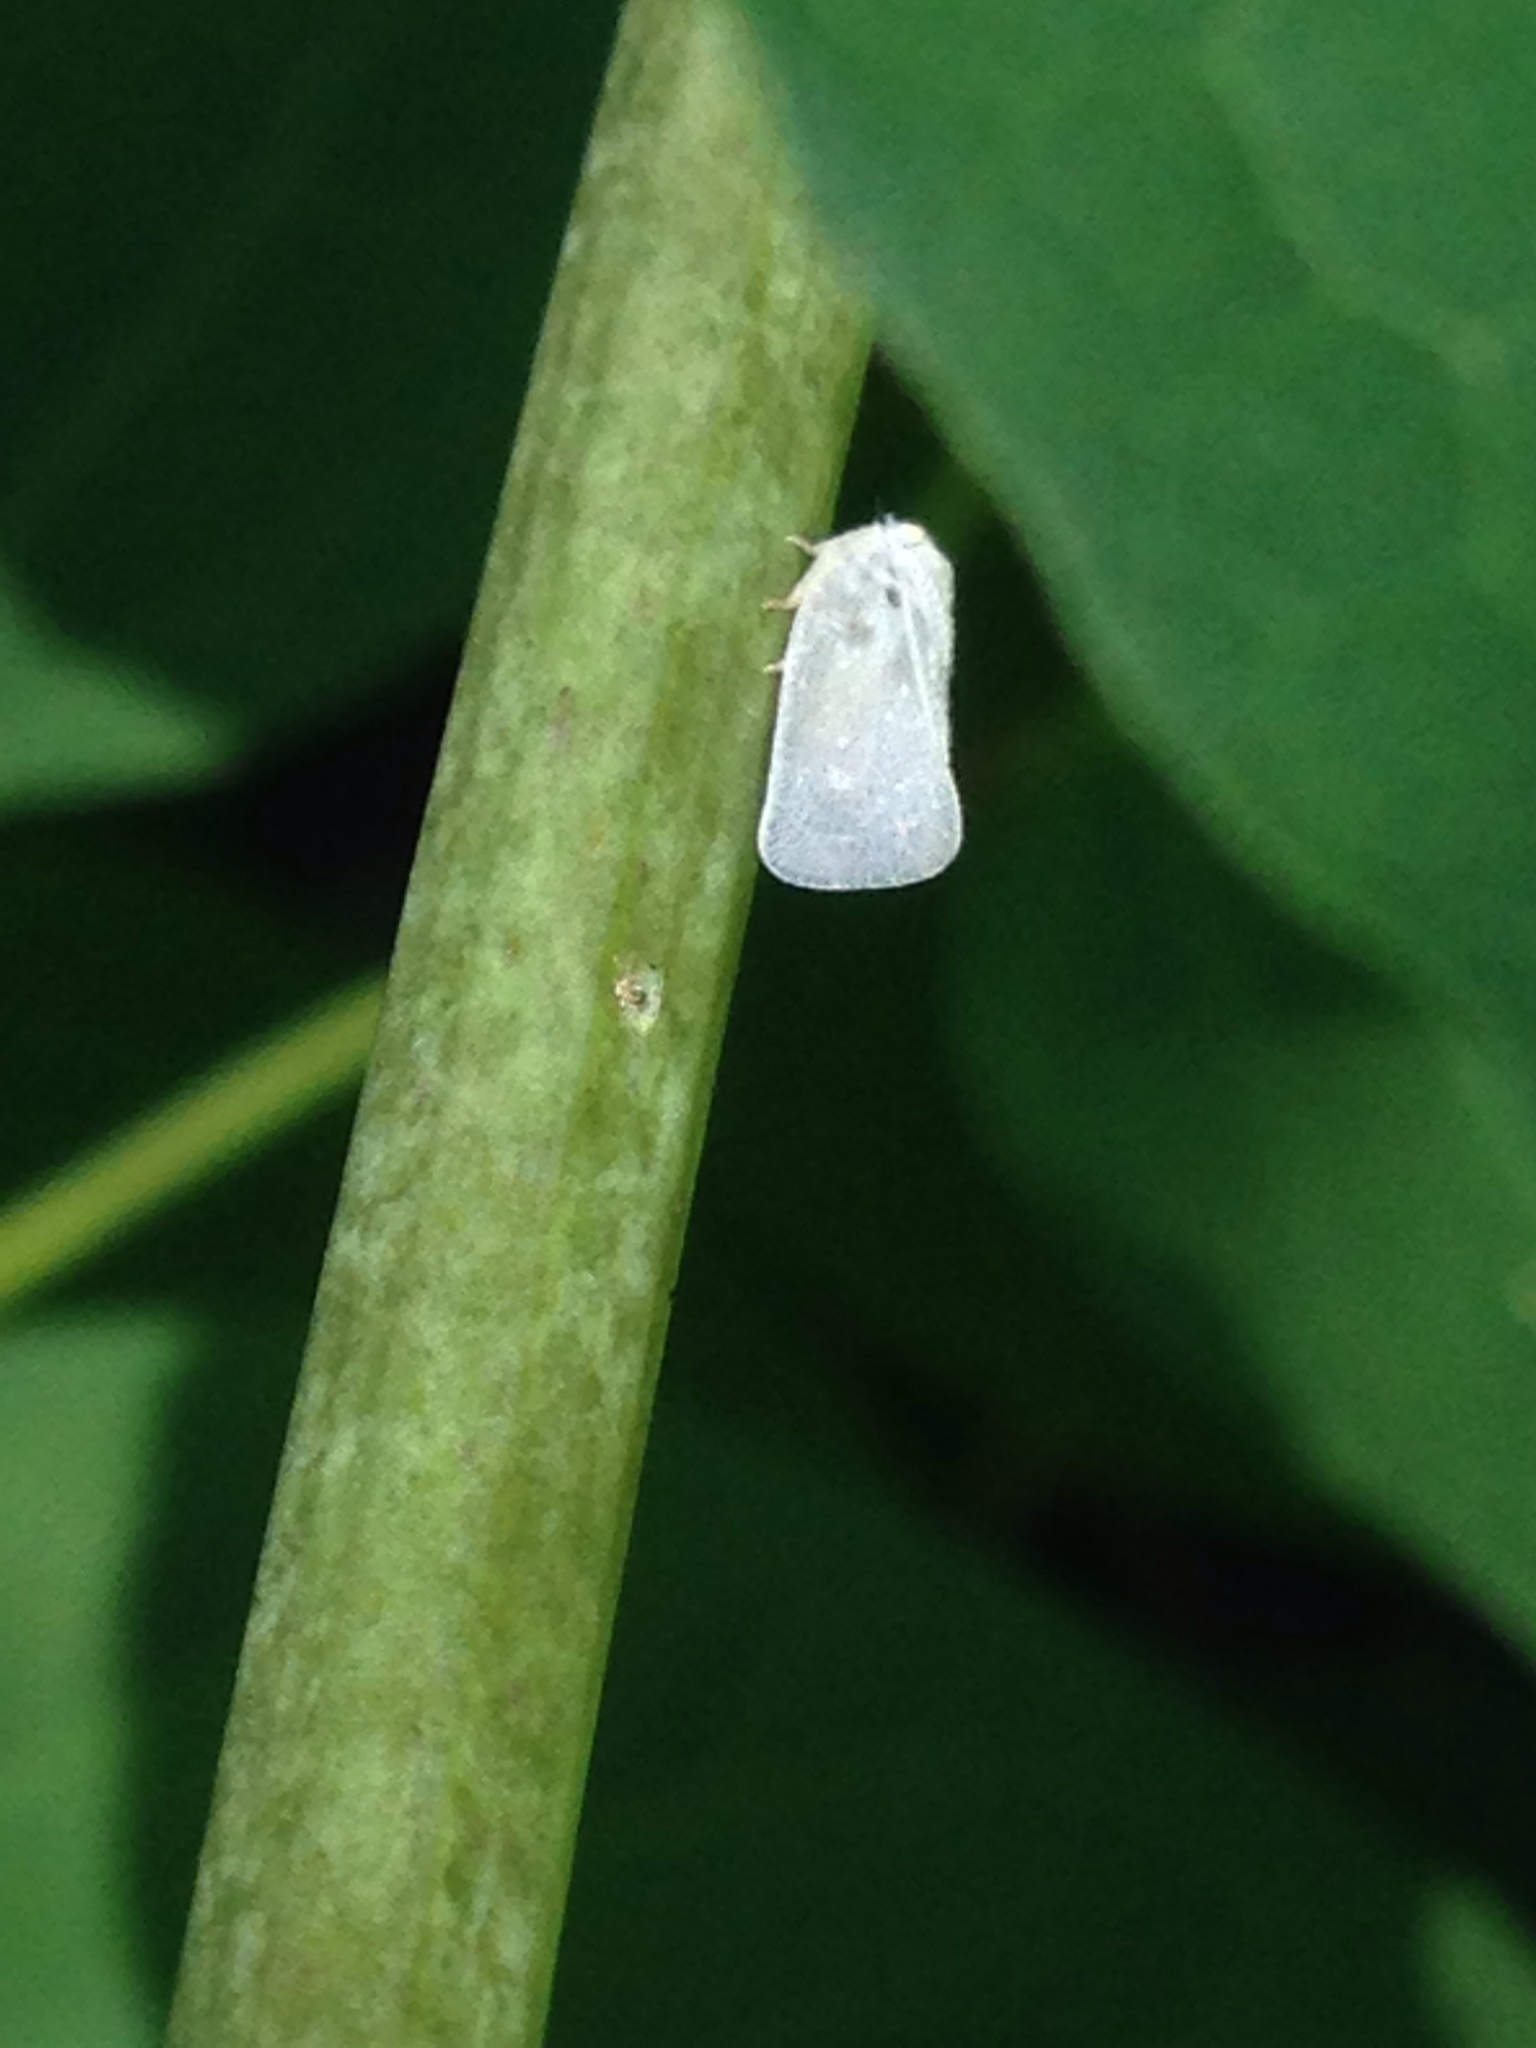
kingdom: Animalia
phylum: Arthropoda
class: Insecta
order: Hemiptera
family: Flatidae
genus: Metcalfa
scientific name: Metcalfa pruinosa
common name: Citrus flatid planthopper
